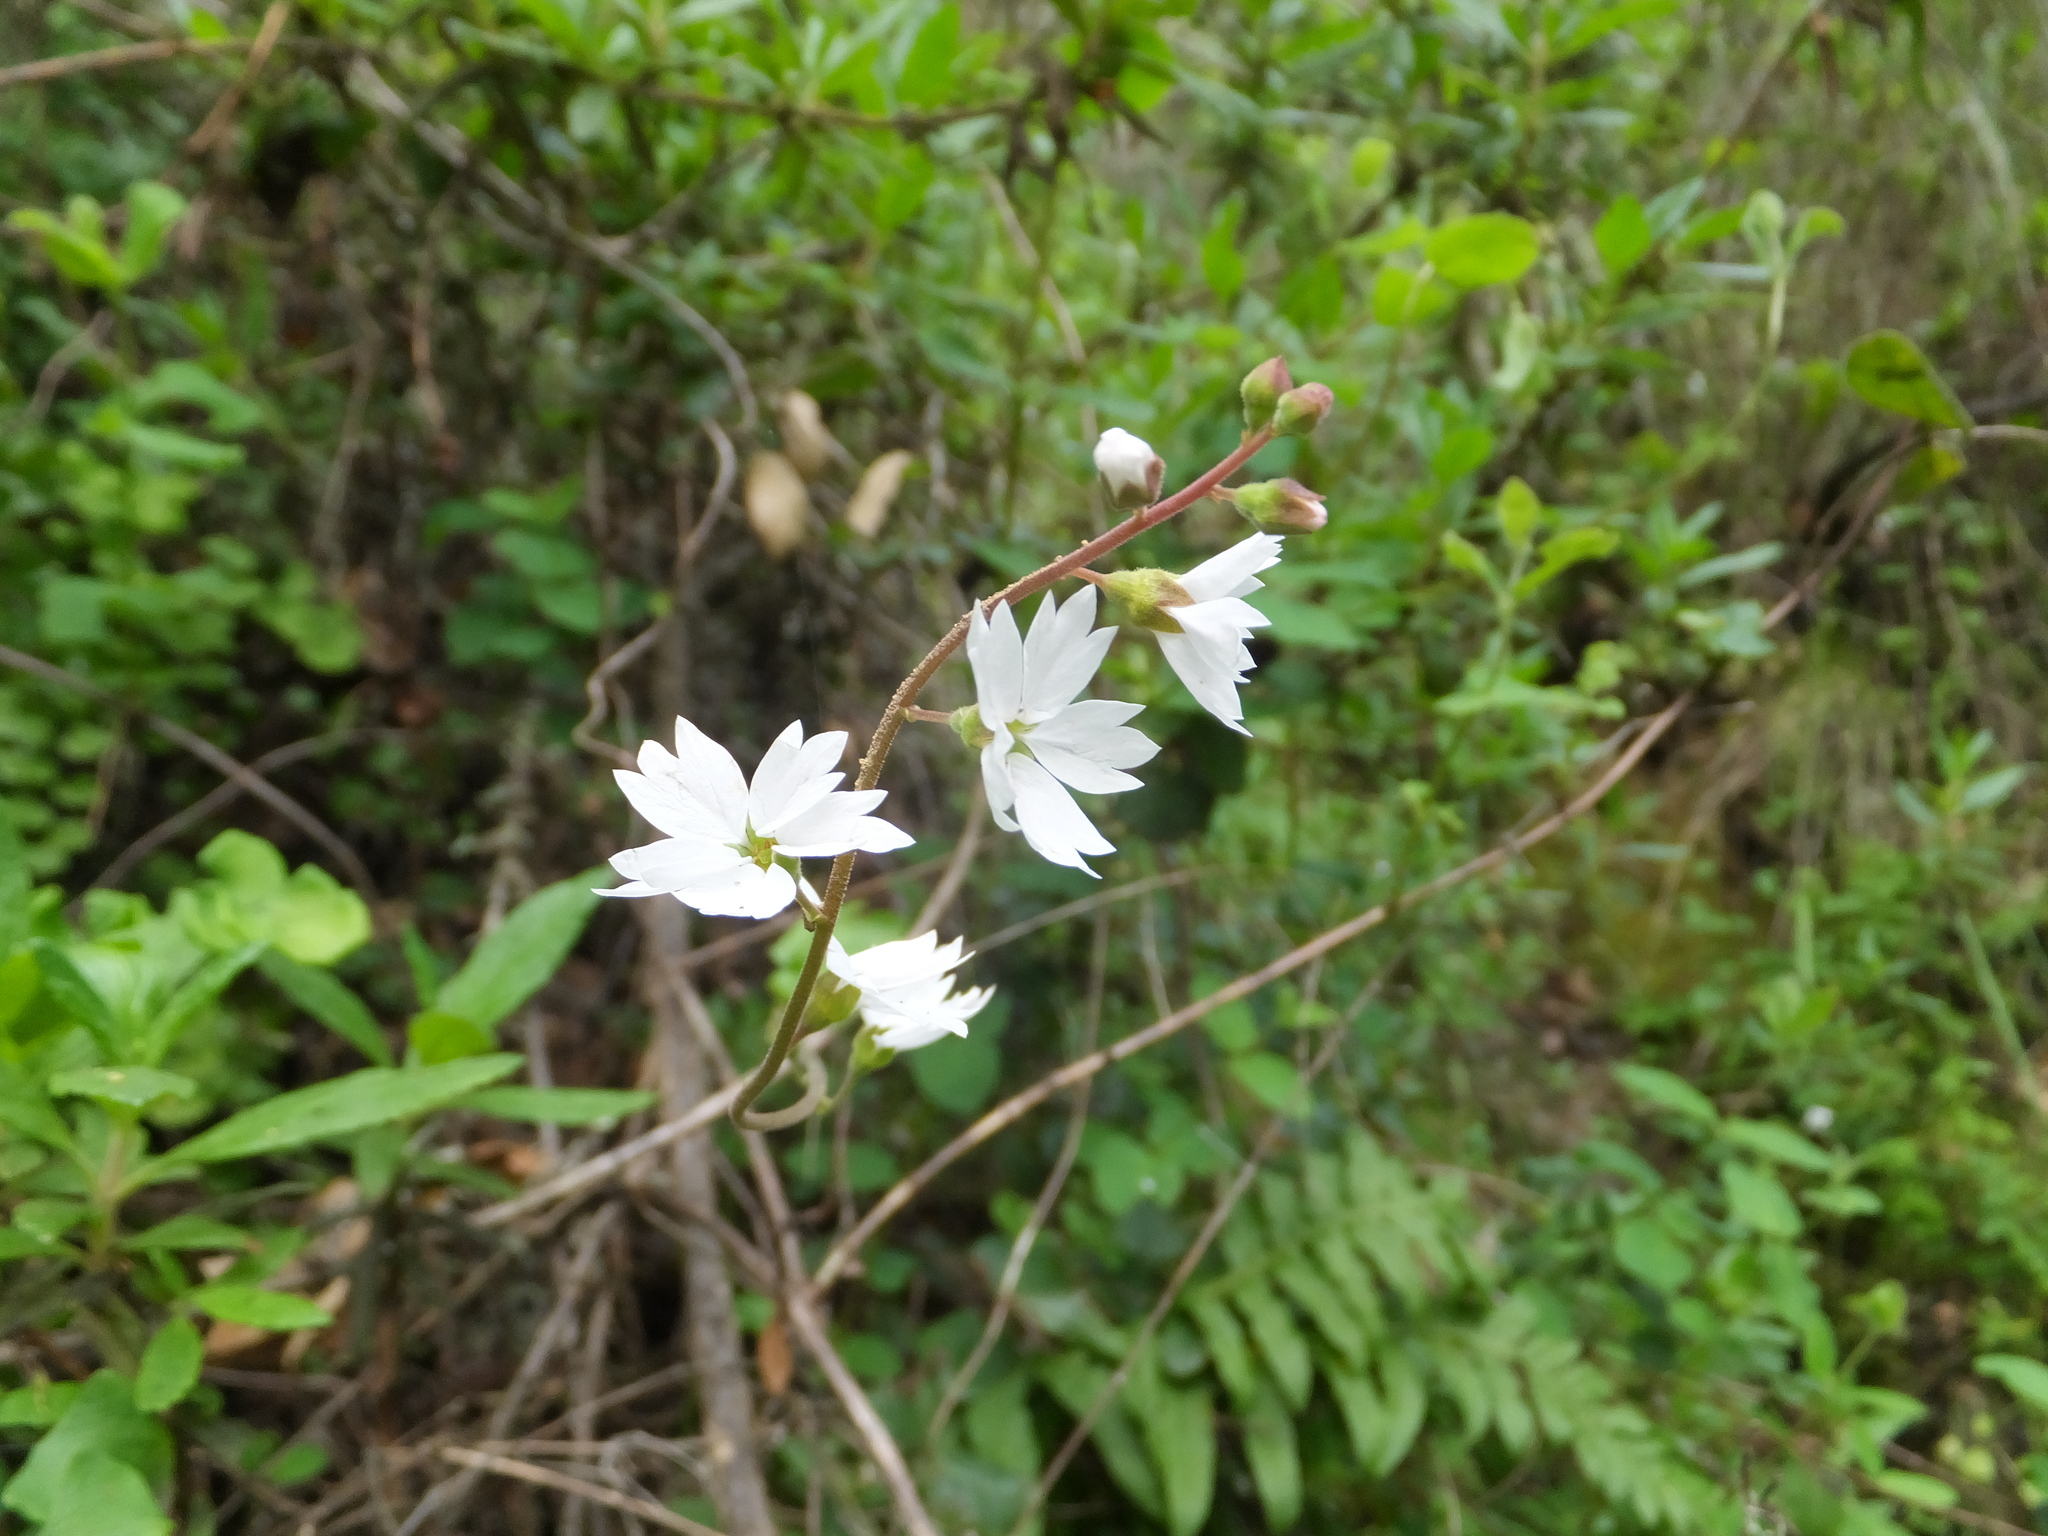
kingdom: Plantae
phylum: Tracheophyta
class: Magnoliopsida
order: Saxifragales
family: Saxifragaceae
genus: Lithophragma
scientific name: Lithophragma affine
